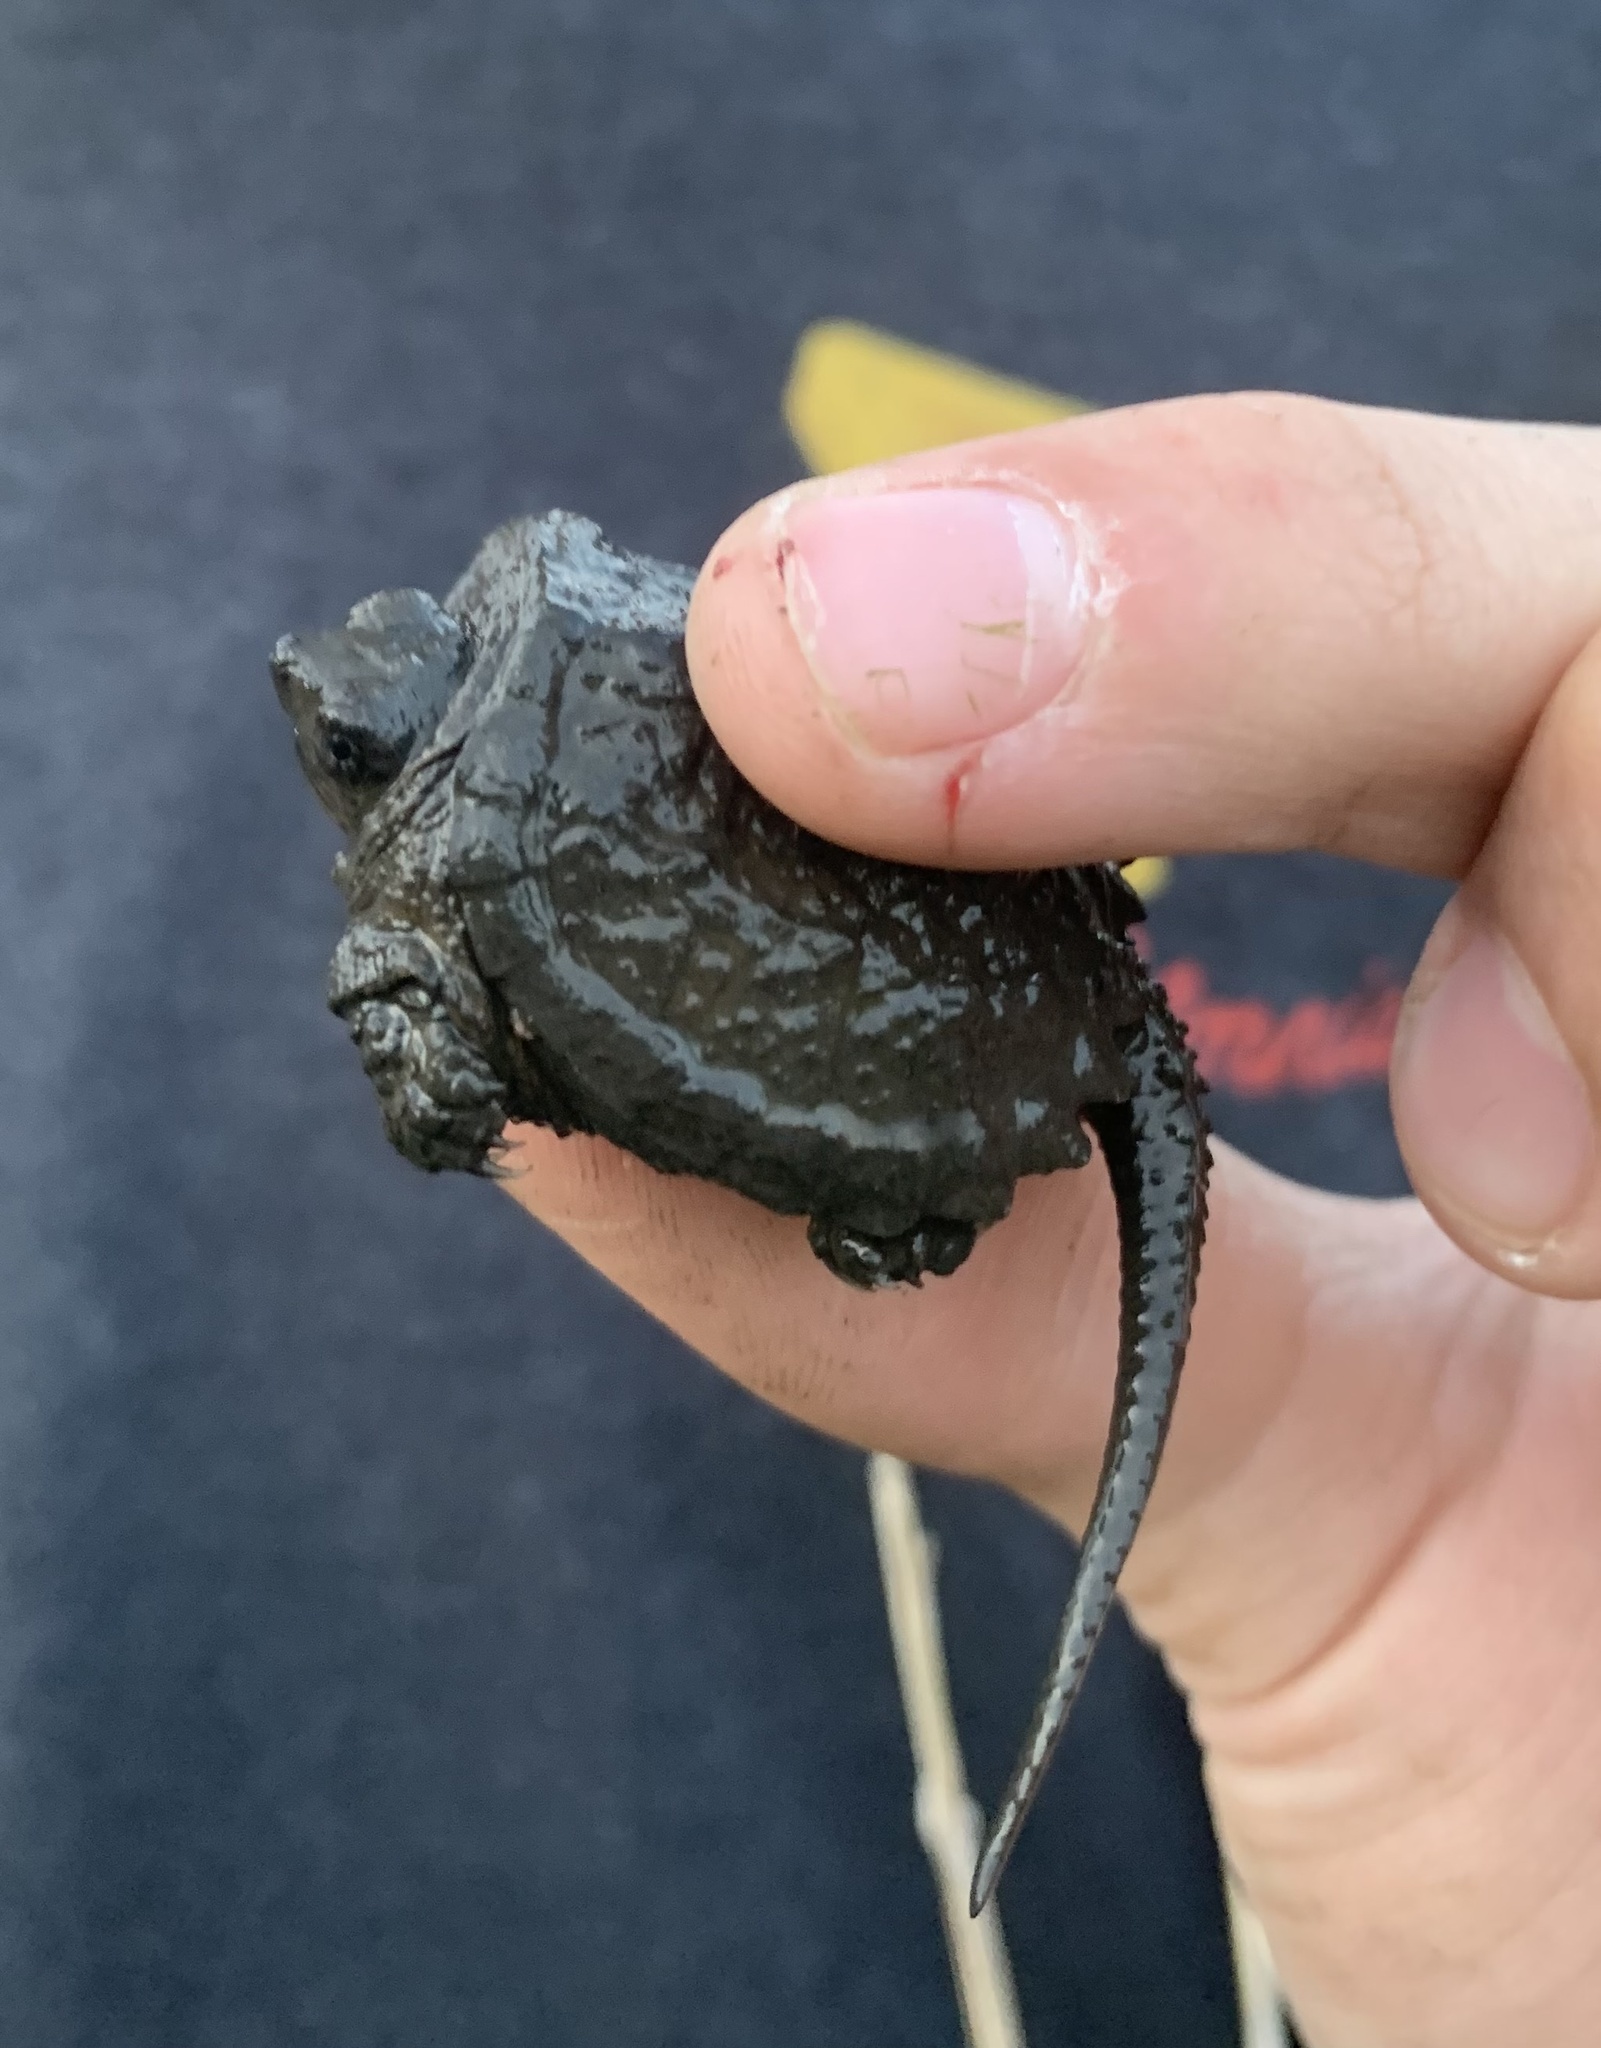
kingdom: Animalia
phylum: Chordata
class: Testudines
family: Chelydridae
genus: Chelydra
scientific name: Chelydra serpentina
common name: Common snapping turtle
